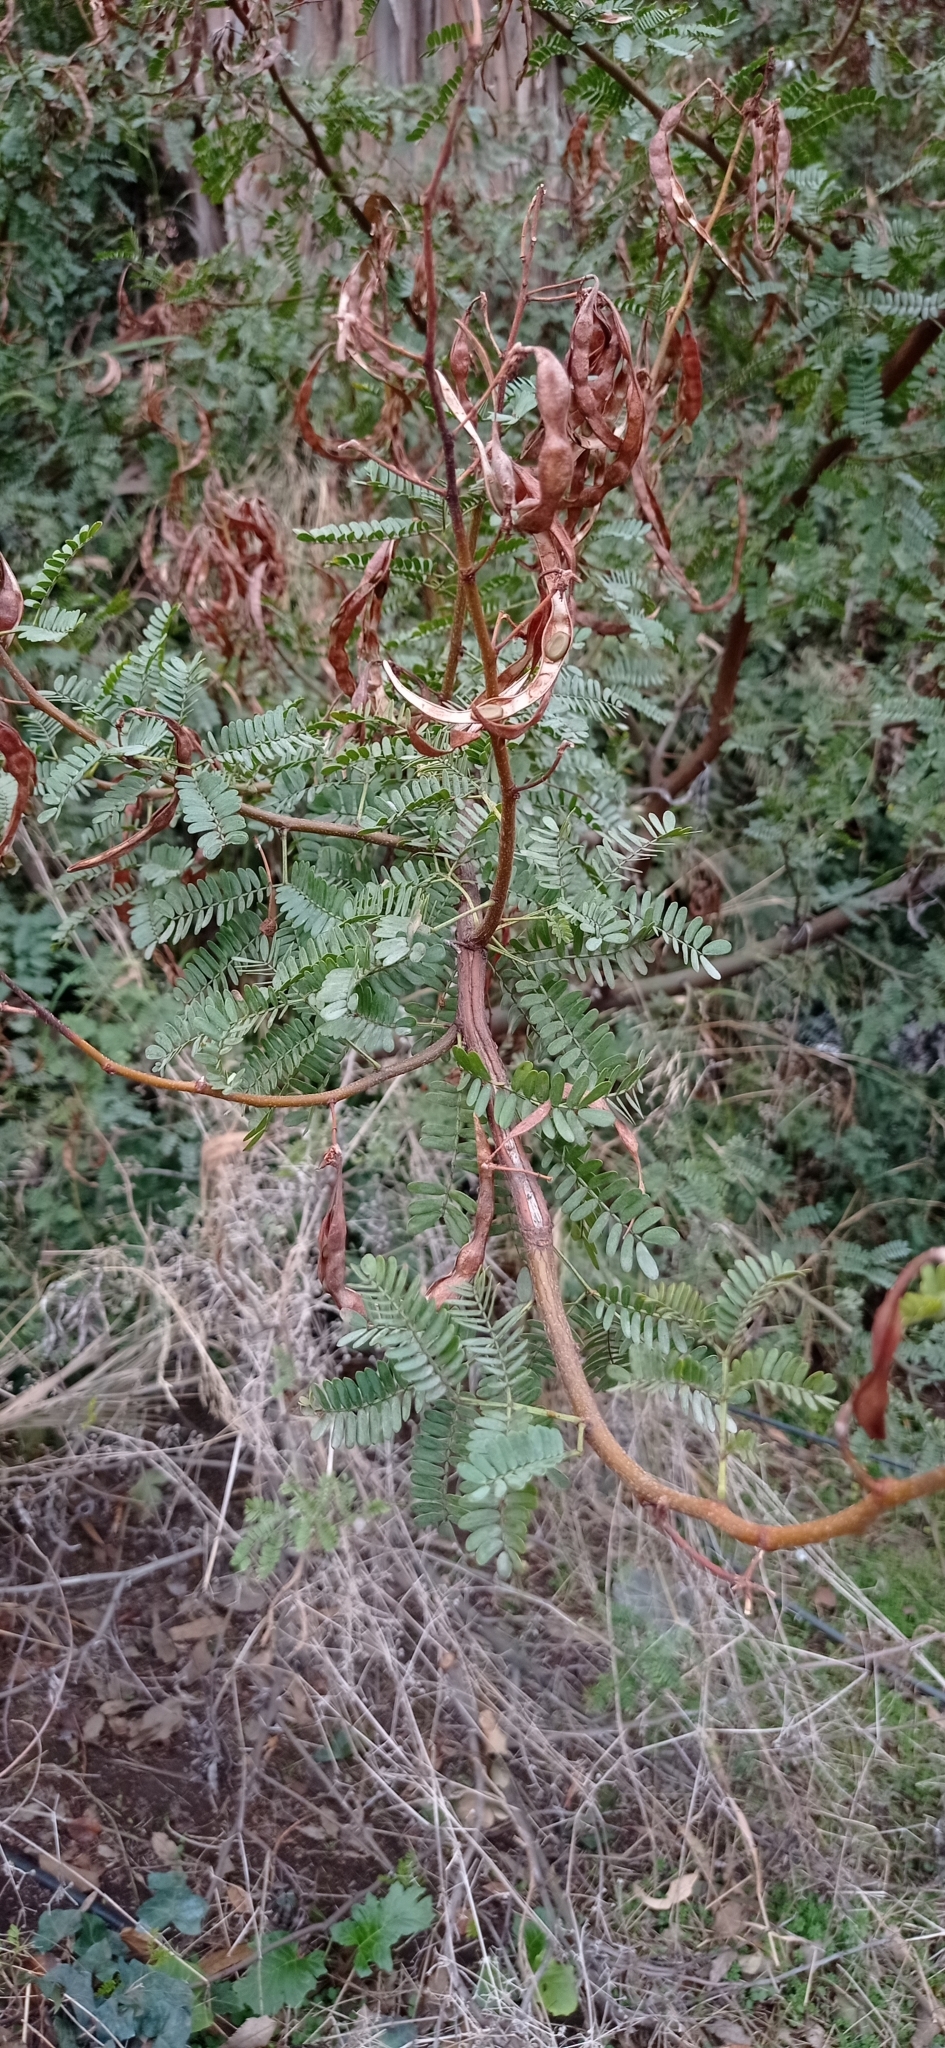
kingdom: Plantae
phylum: Tracheophyta
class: Magnoliopsida
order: Fabales
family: Fabaceae
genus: Vachellia
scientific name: Vachellia karroo
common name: Sweet thorn
